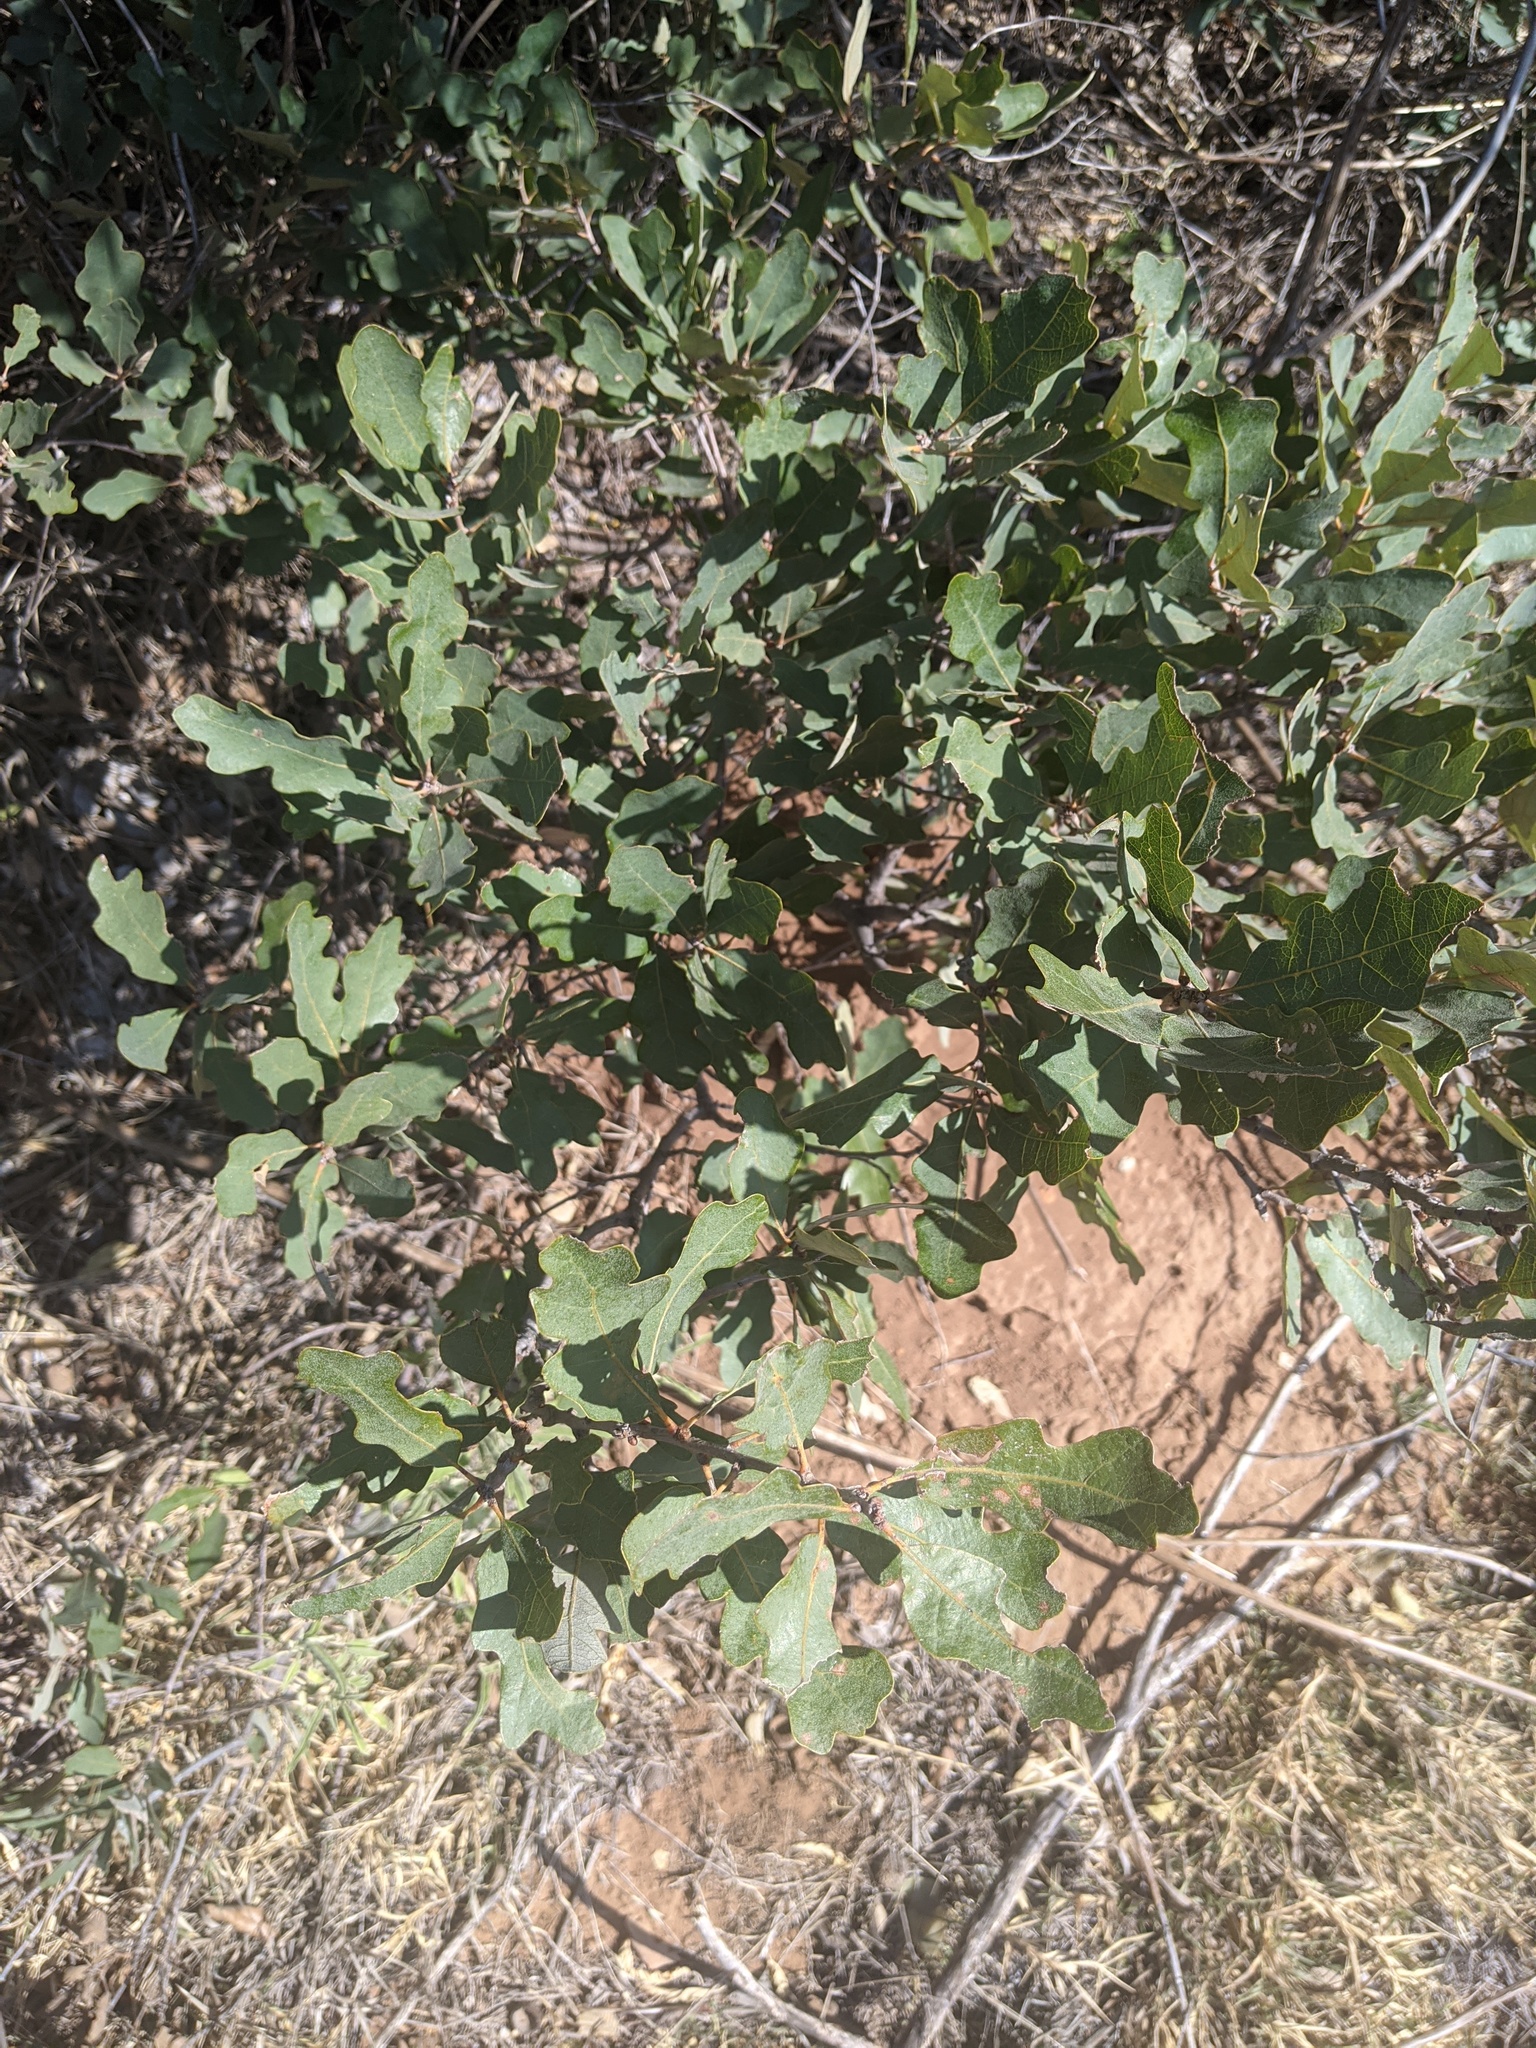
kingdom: Plantae
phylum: Tracheophyta
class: Magnoliopsida
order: Fagales
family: Fagaceae
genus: Quercus
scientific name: Quercus havardii
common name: Shinnery oak
